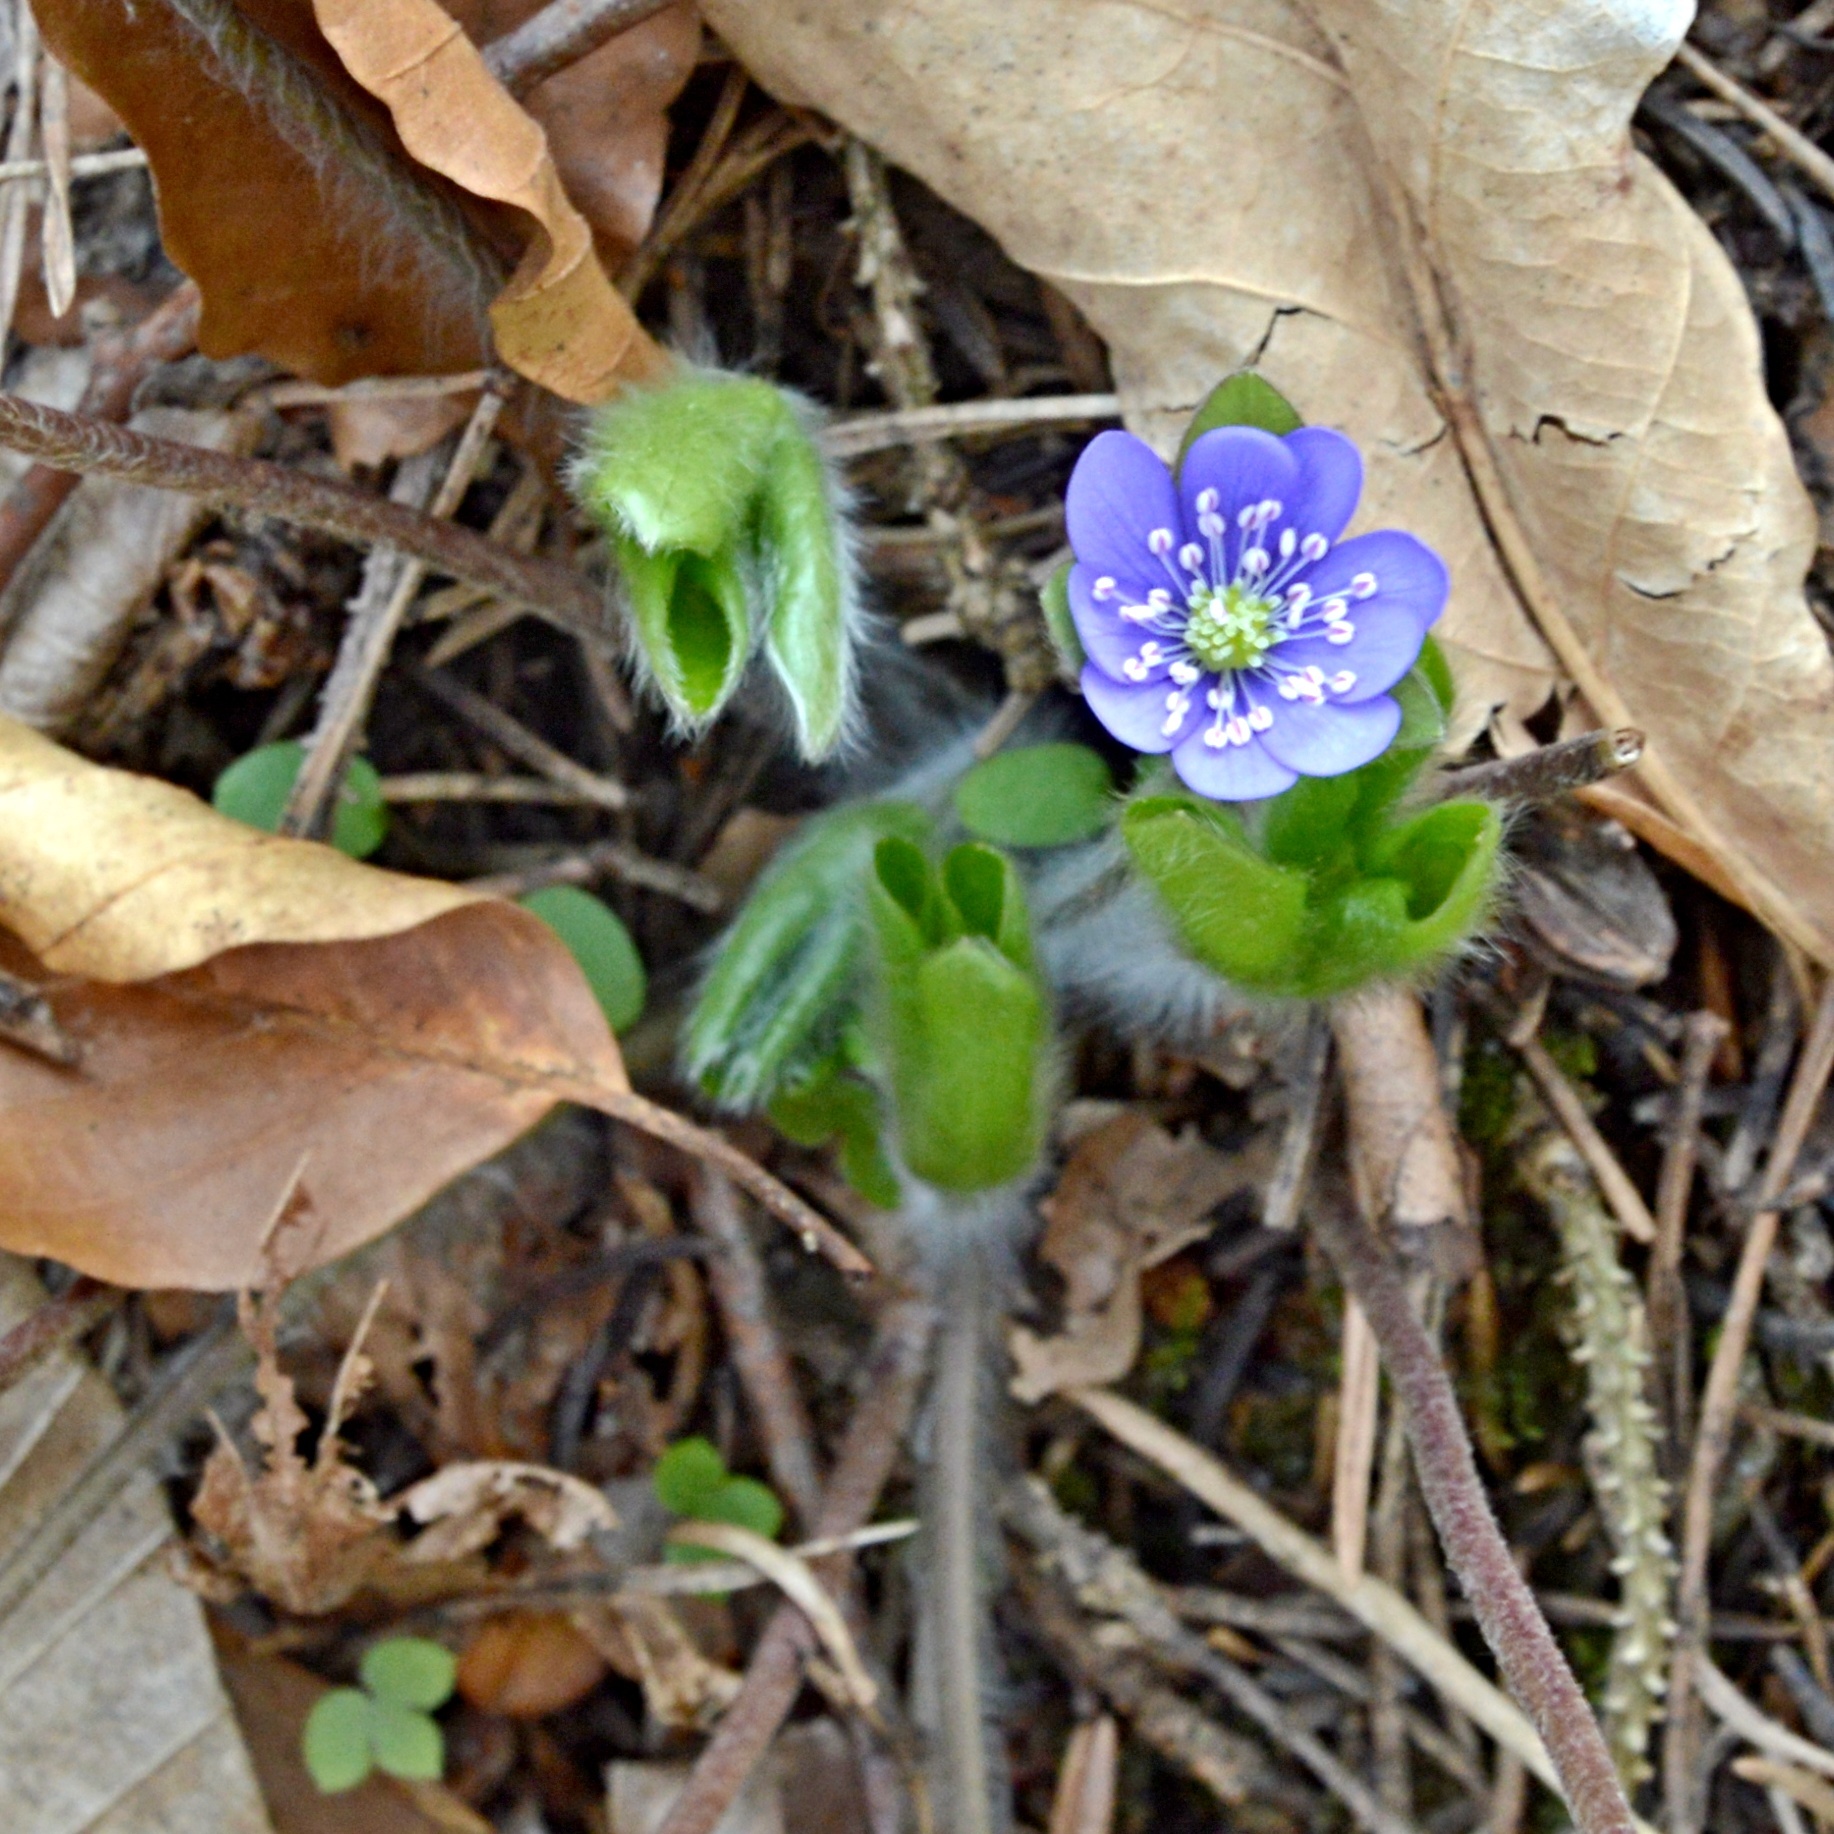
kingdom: Plantae
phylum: Tracheophyta
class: Magnoliopsida
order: Ranunculales
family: Ranunculaceae
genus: Hepatica
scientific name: Hepatica nobilis
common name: Liverleaf
